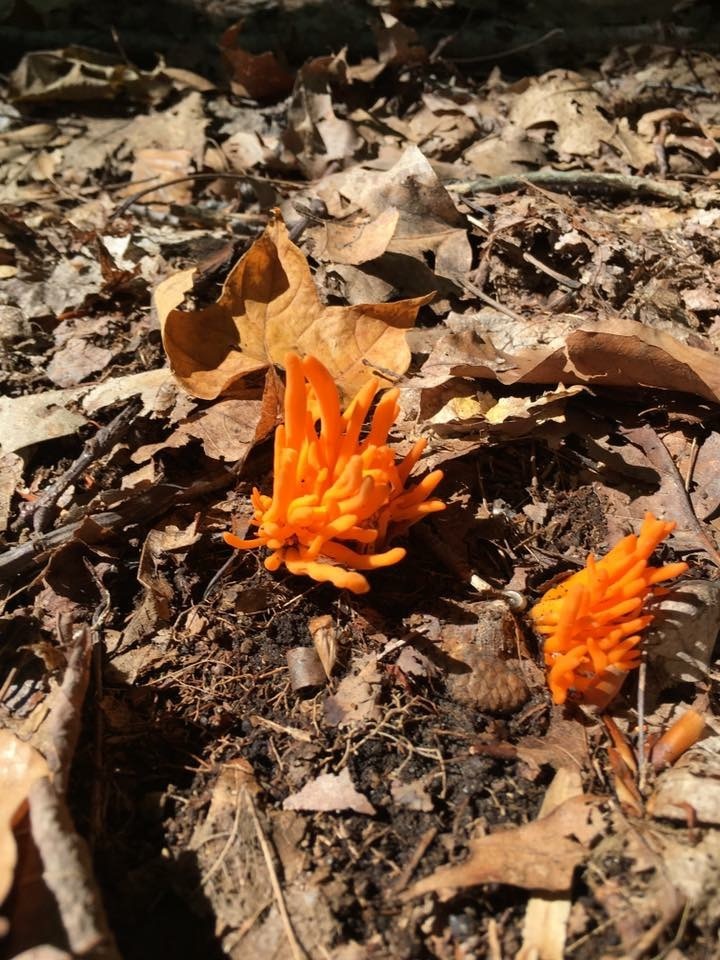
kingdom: Fungi
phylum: Basidiomycota
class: Agaricomycetes
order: Agaricales
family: Clavariaceae
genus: Clavulinopsis
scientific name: Clavulinopsis aurantiocinnabarina
